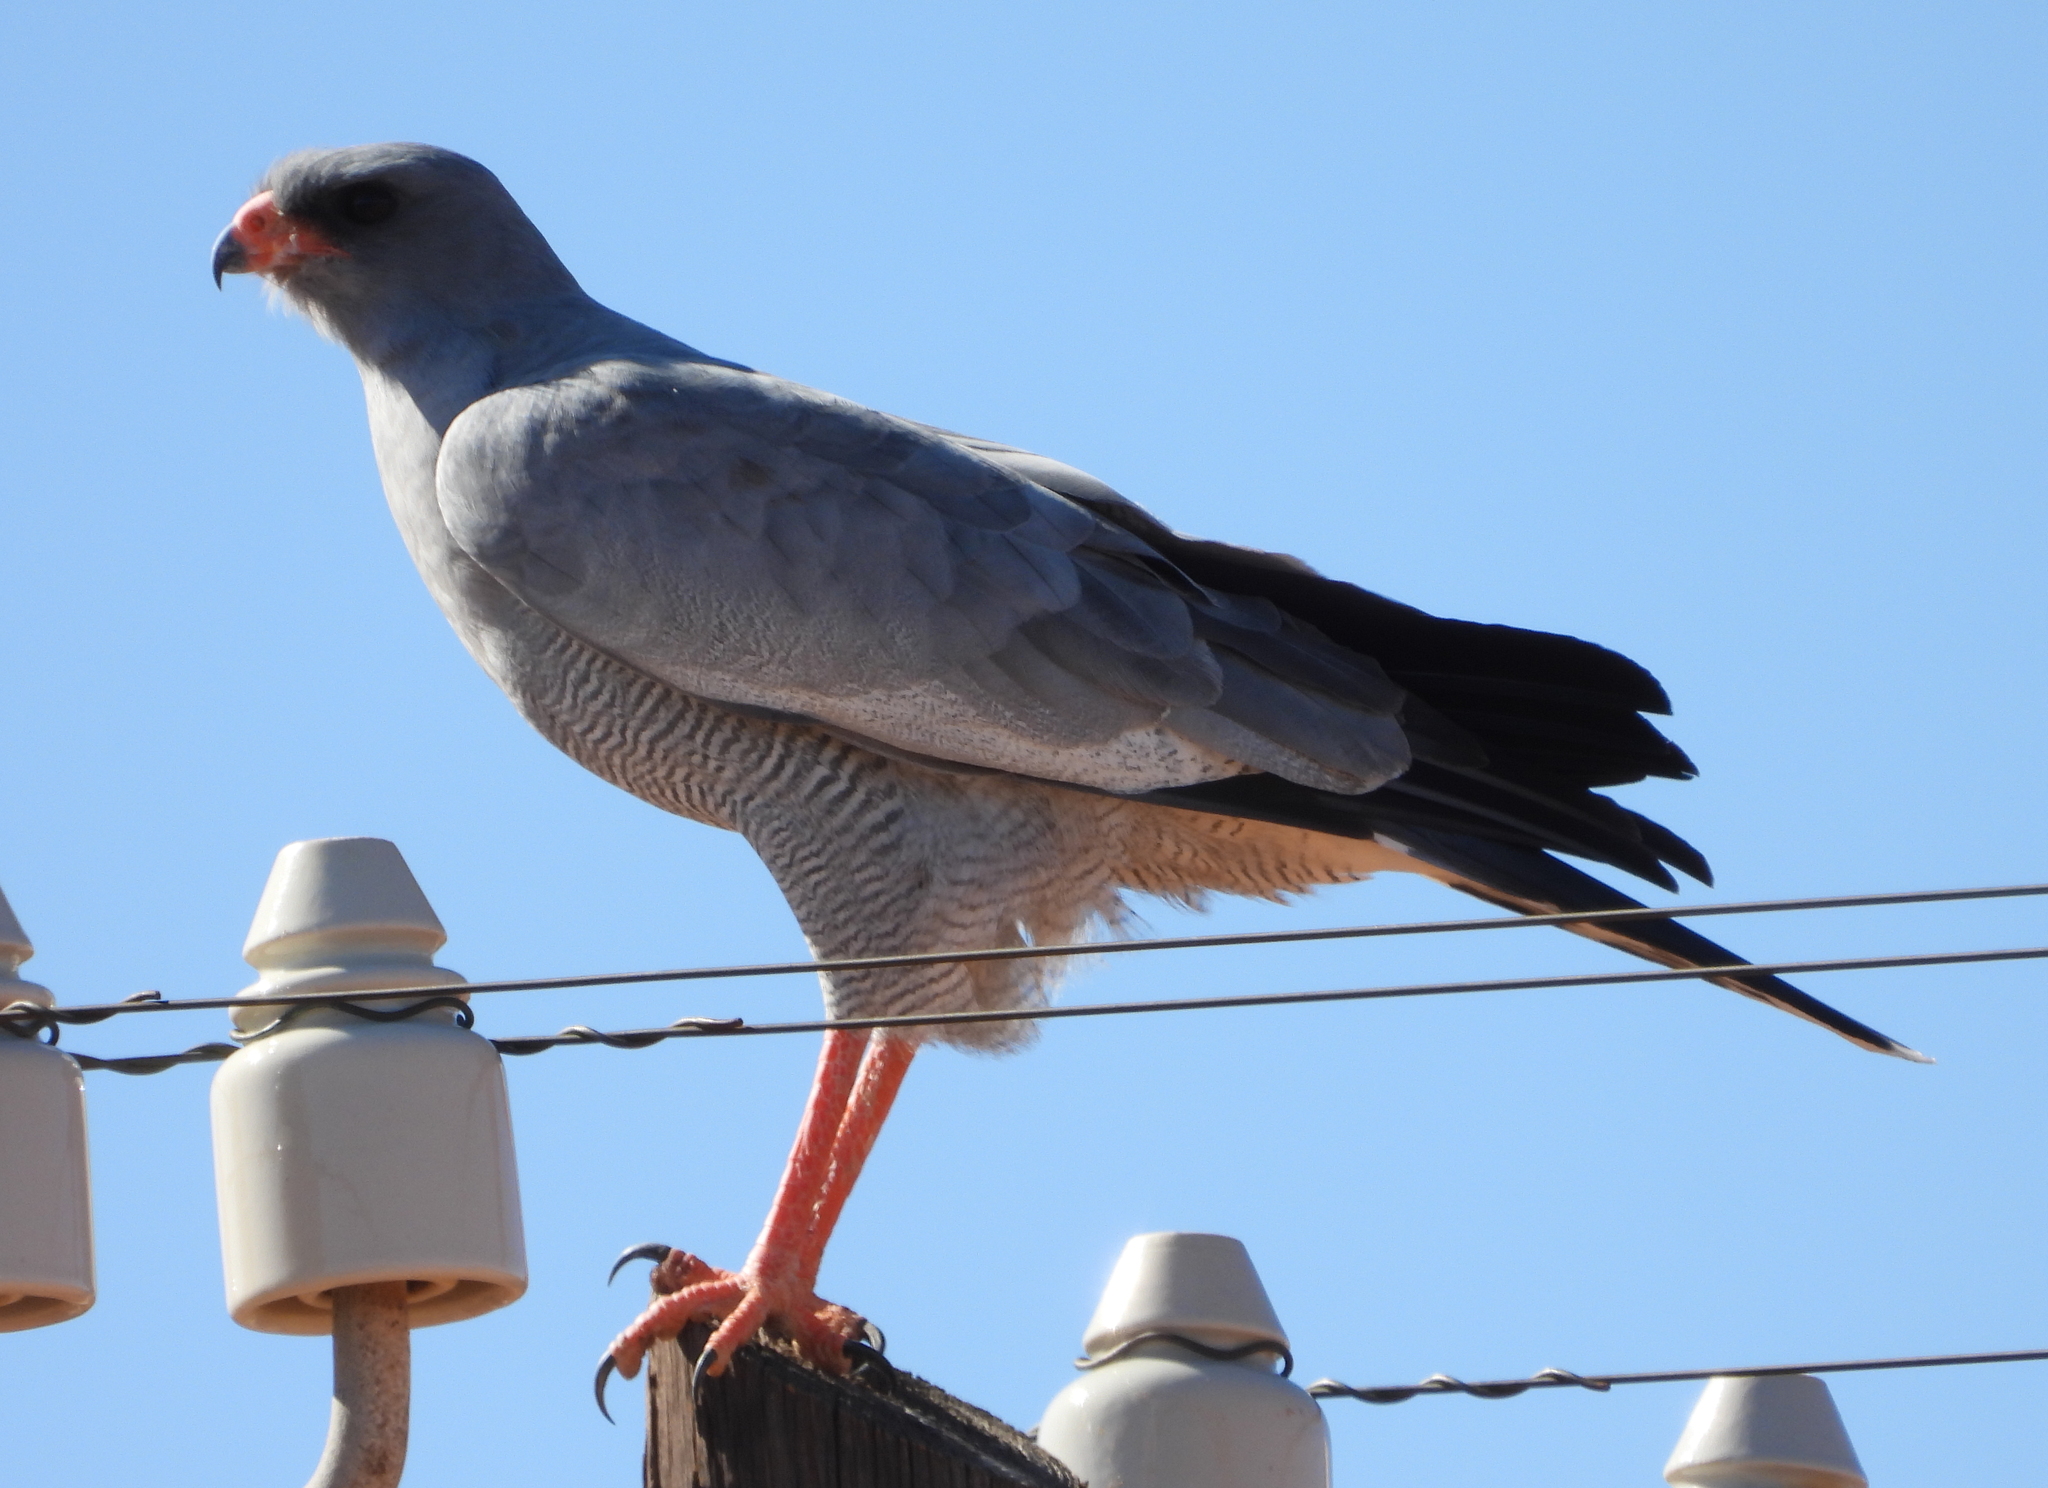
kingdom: Animalia
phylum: Chordata
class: Aves
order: Accipitriformes
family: Accipitridae
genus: Melierax
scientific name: Melierax canorus
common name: Pale chanting-goshawk
